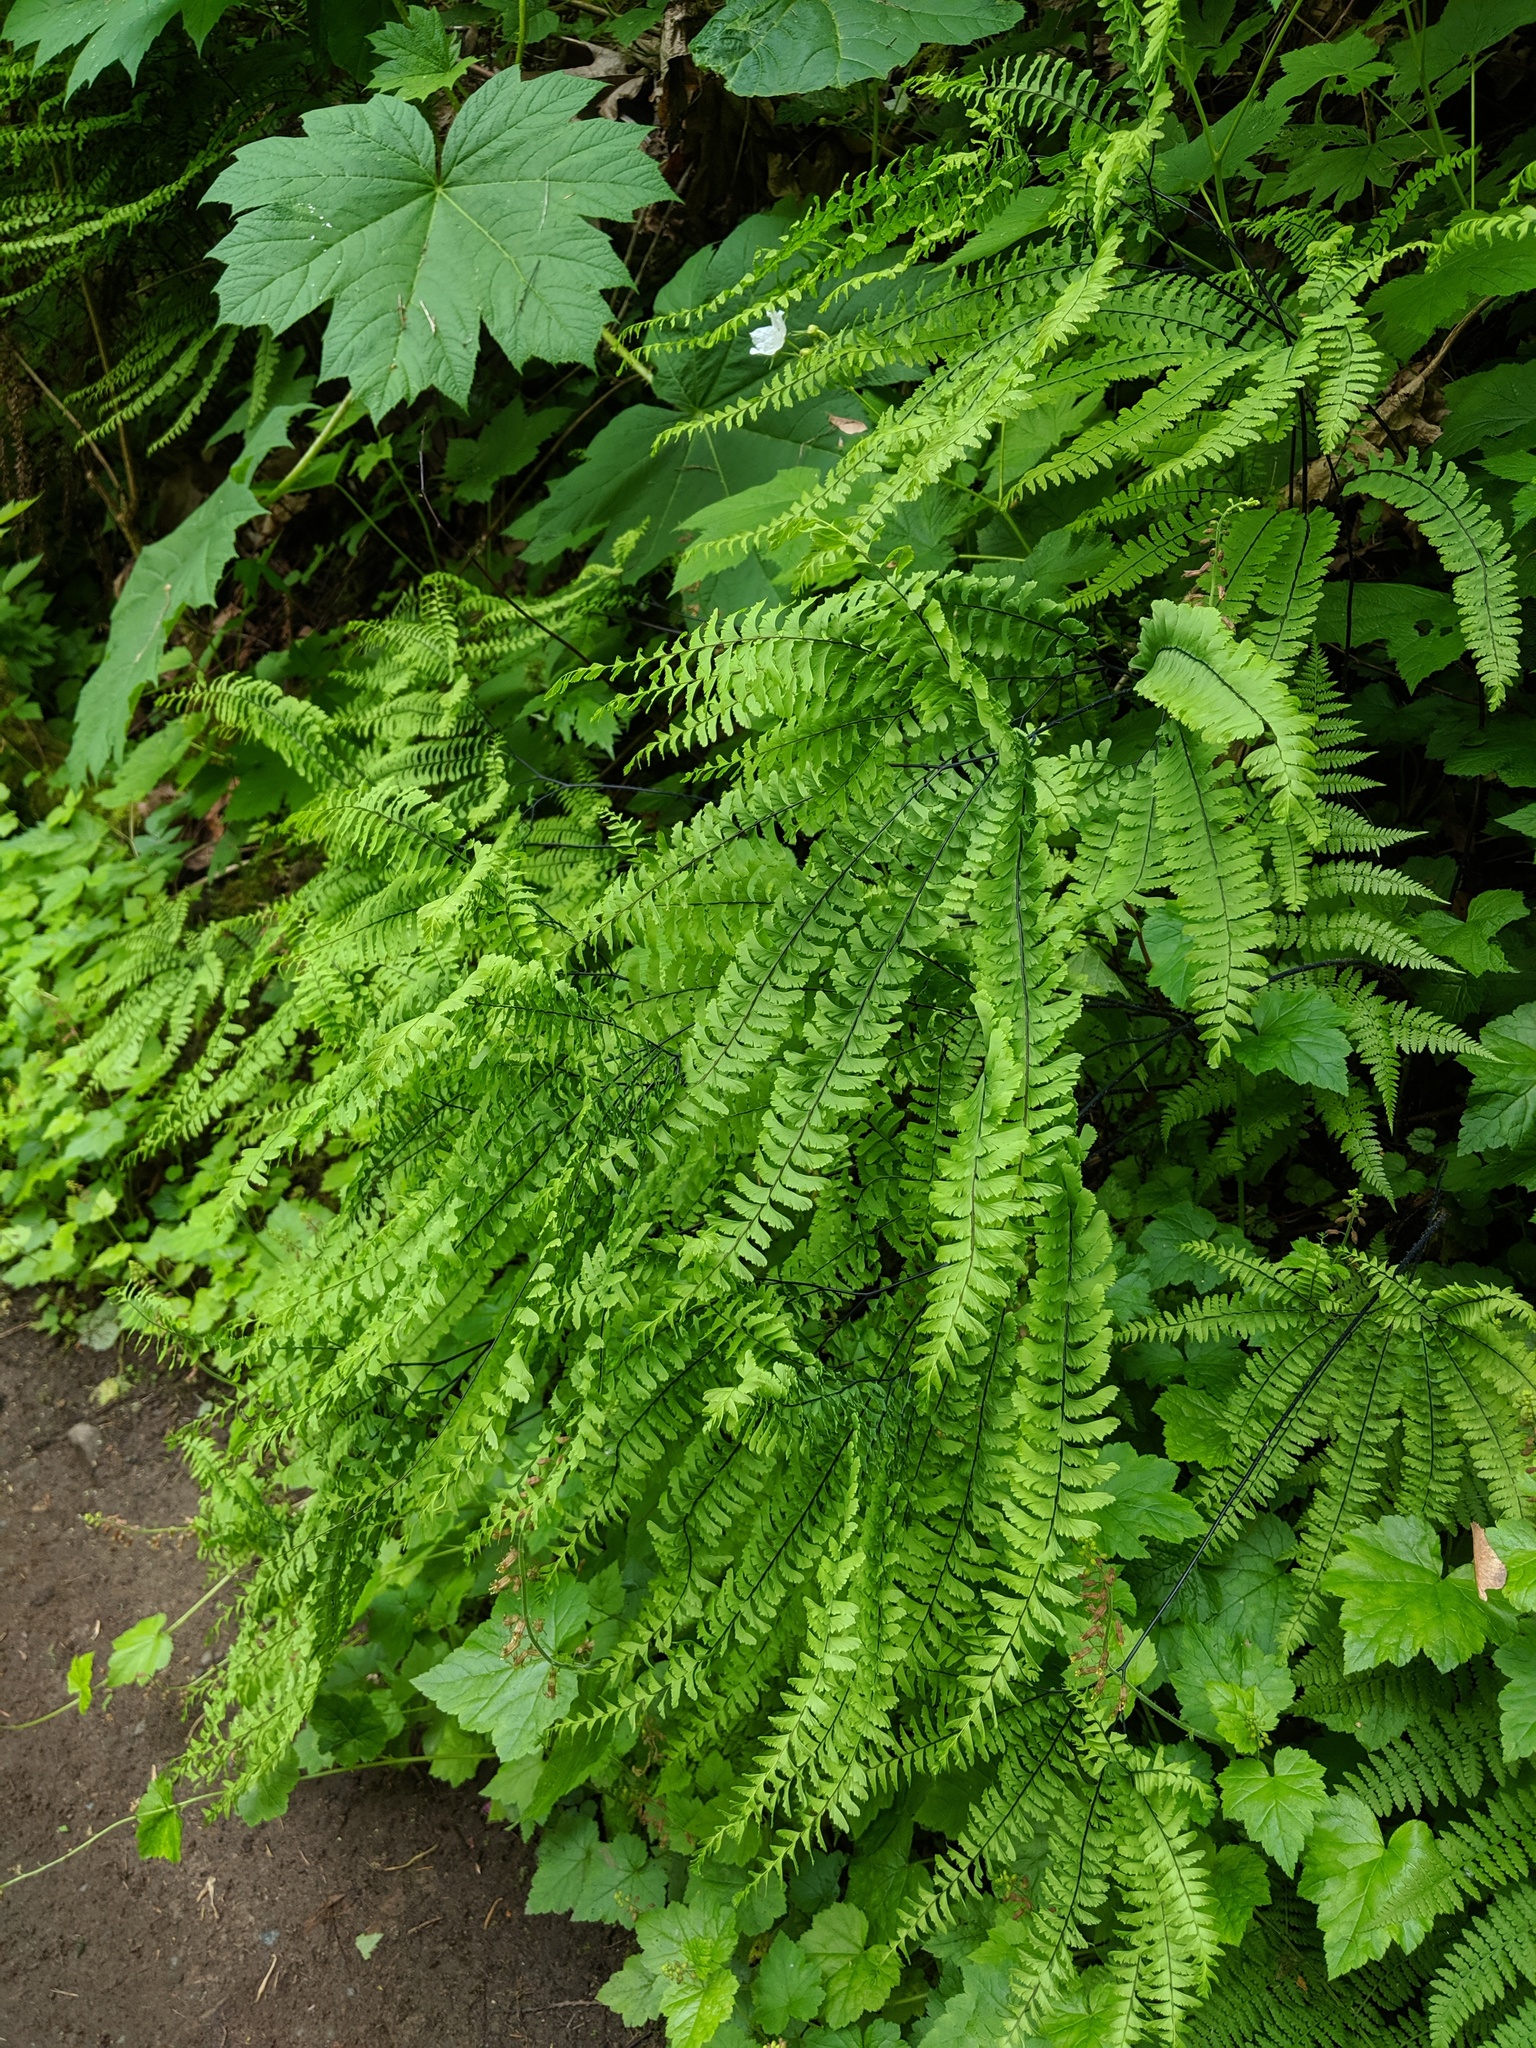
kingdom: Plantae
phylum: Tracheophyta
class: Polypodiopsida
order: Polypodiales
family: Pteridaceae
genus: Adiantum
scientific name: Adiantum aleuticum
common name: Aleutian maidenhair fern
